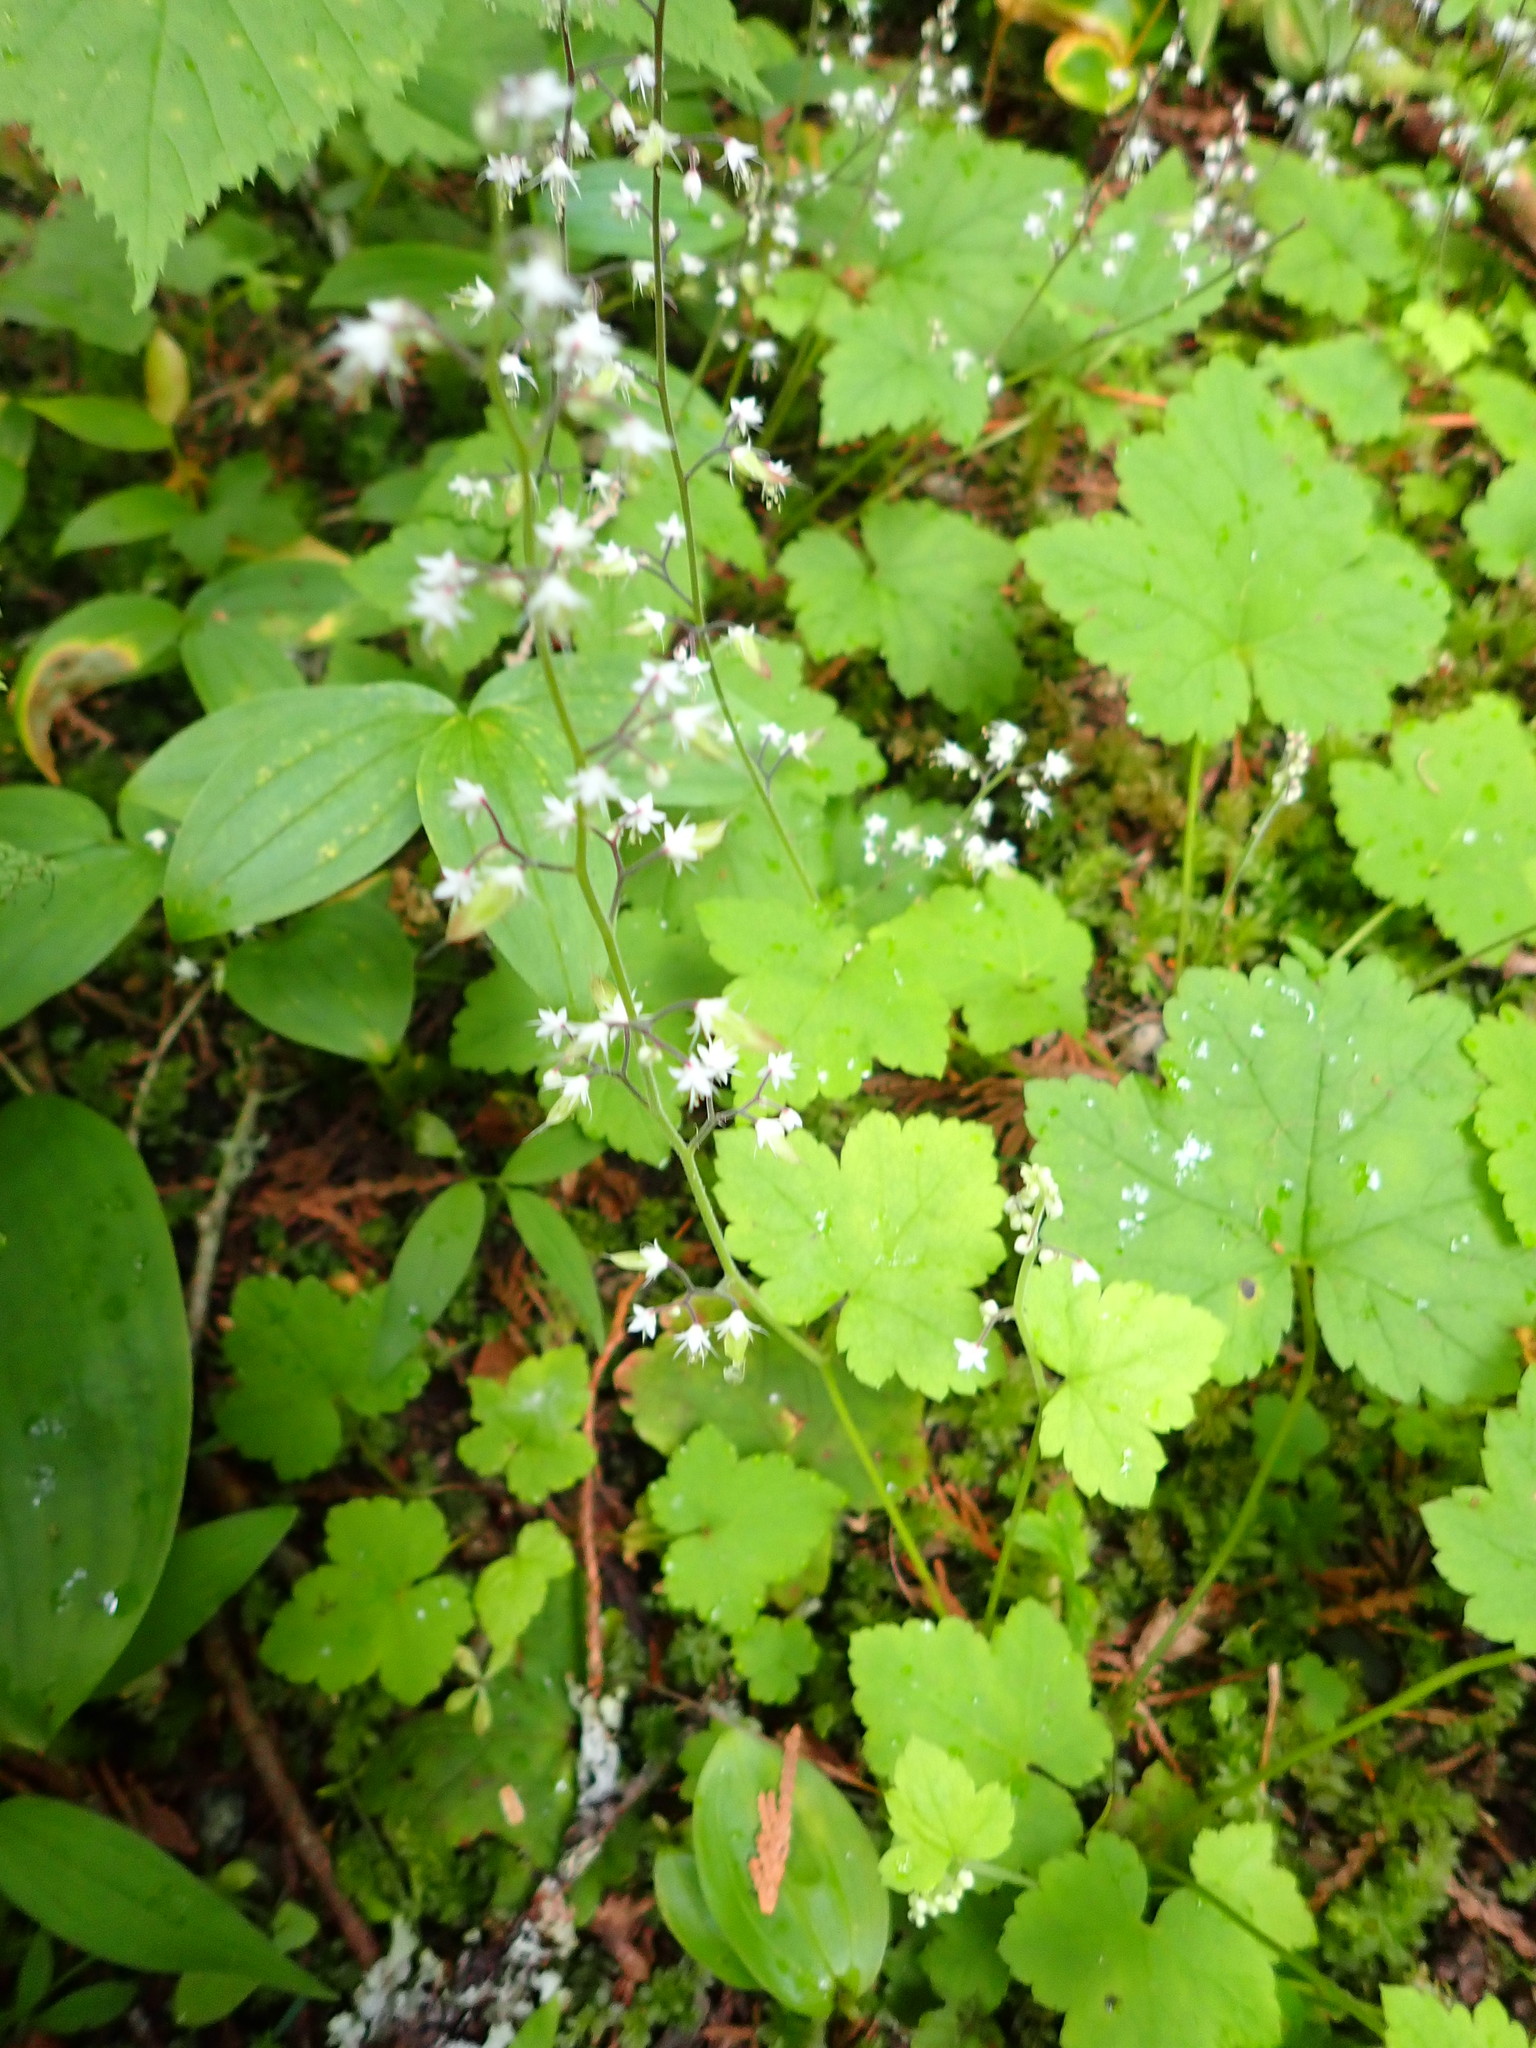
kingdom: Plantae
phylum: Tracheophyta
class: Magnoliopsida
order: Saxifragales
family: Saxifragaceae
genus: Tiarella
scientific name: Tiarella trifoliata
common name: Sugar-scoop
